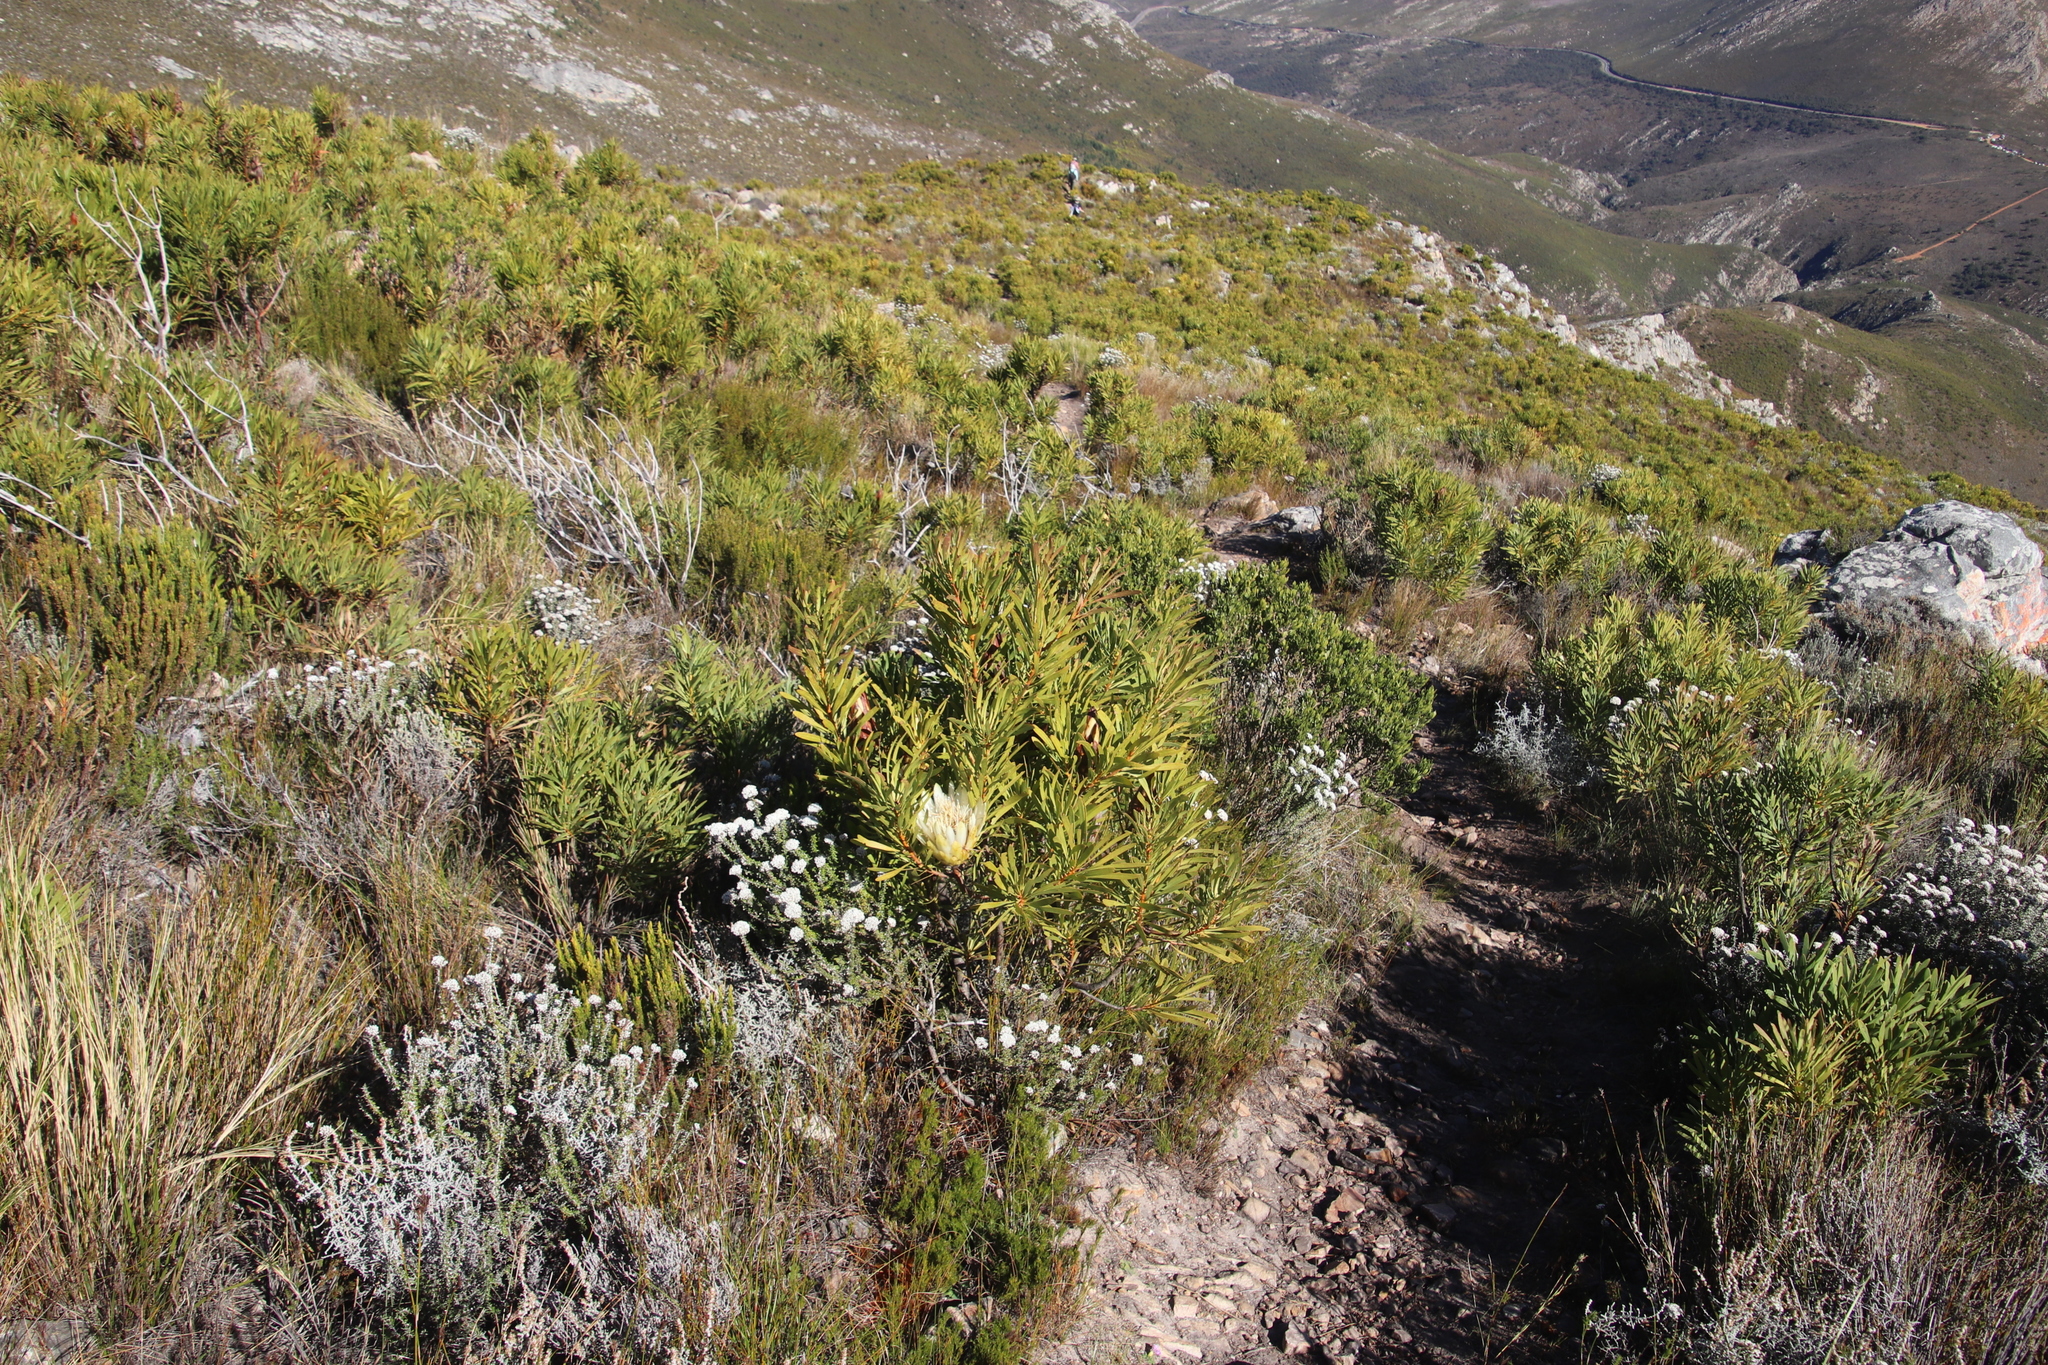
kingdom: Plantae
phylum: Tracheophyta
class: Magnoliopsida
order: Proteales
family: Proteaceae
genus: Protea
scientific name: Protea repens
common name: Sugarbush
